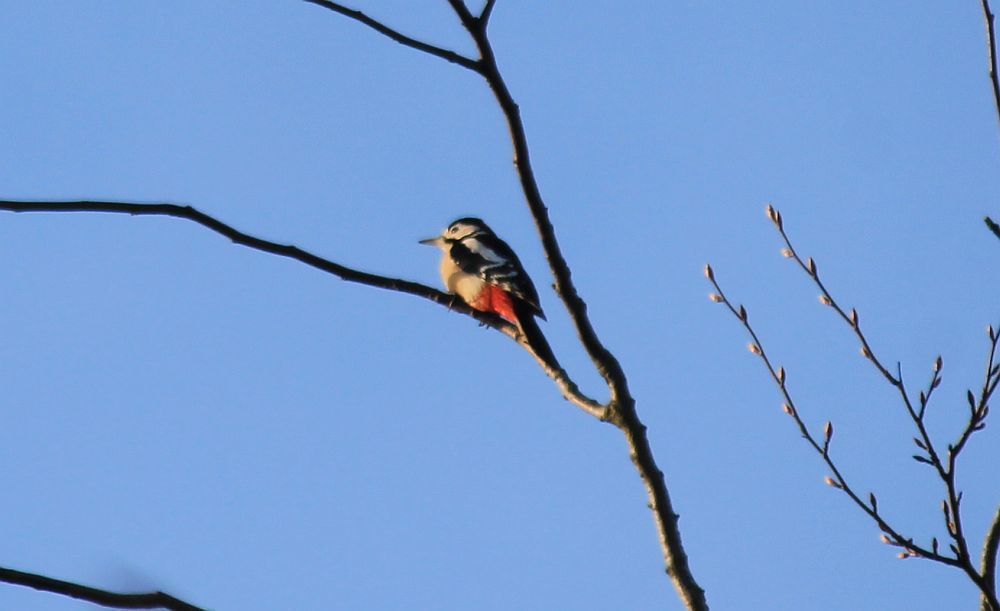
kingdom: Animalia
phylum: Chordata
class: Aves
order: Piciformes
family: Picidae
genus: Dendrocopos
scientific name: Dendrocopos major
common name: Great spotted woodpecker
